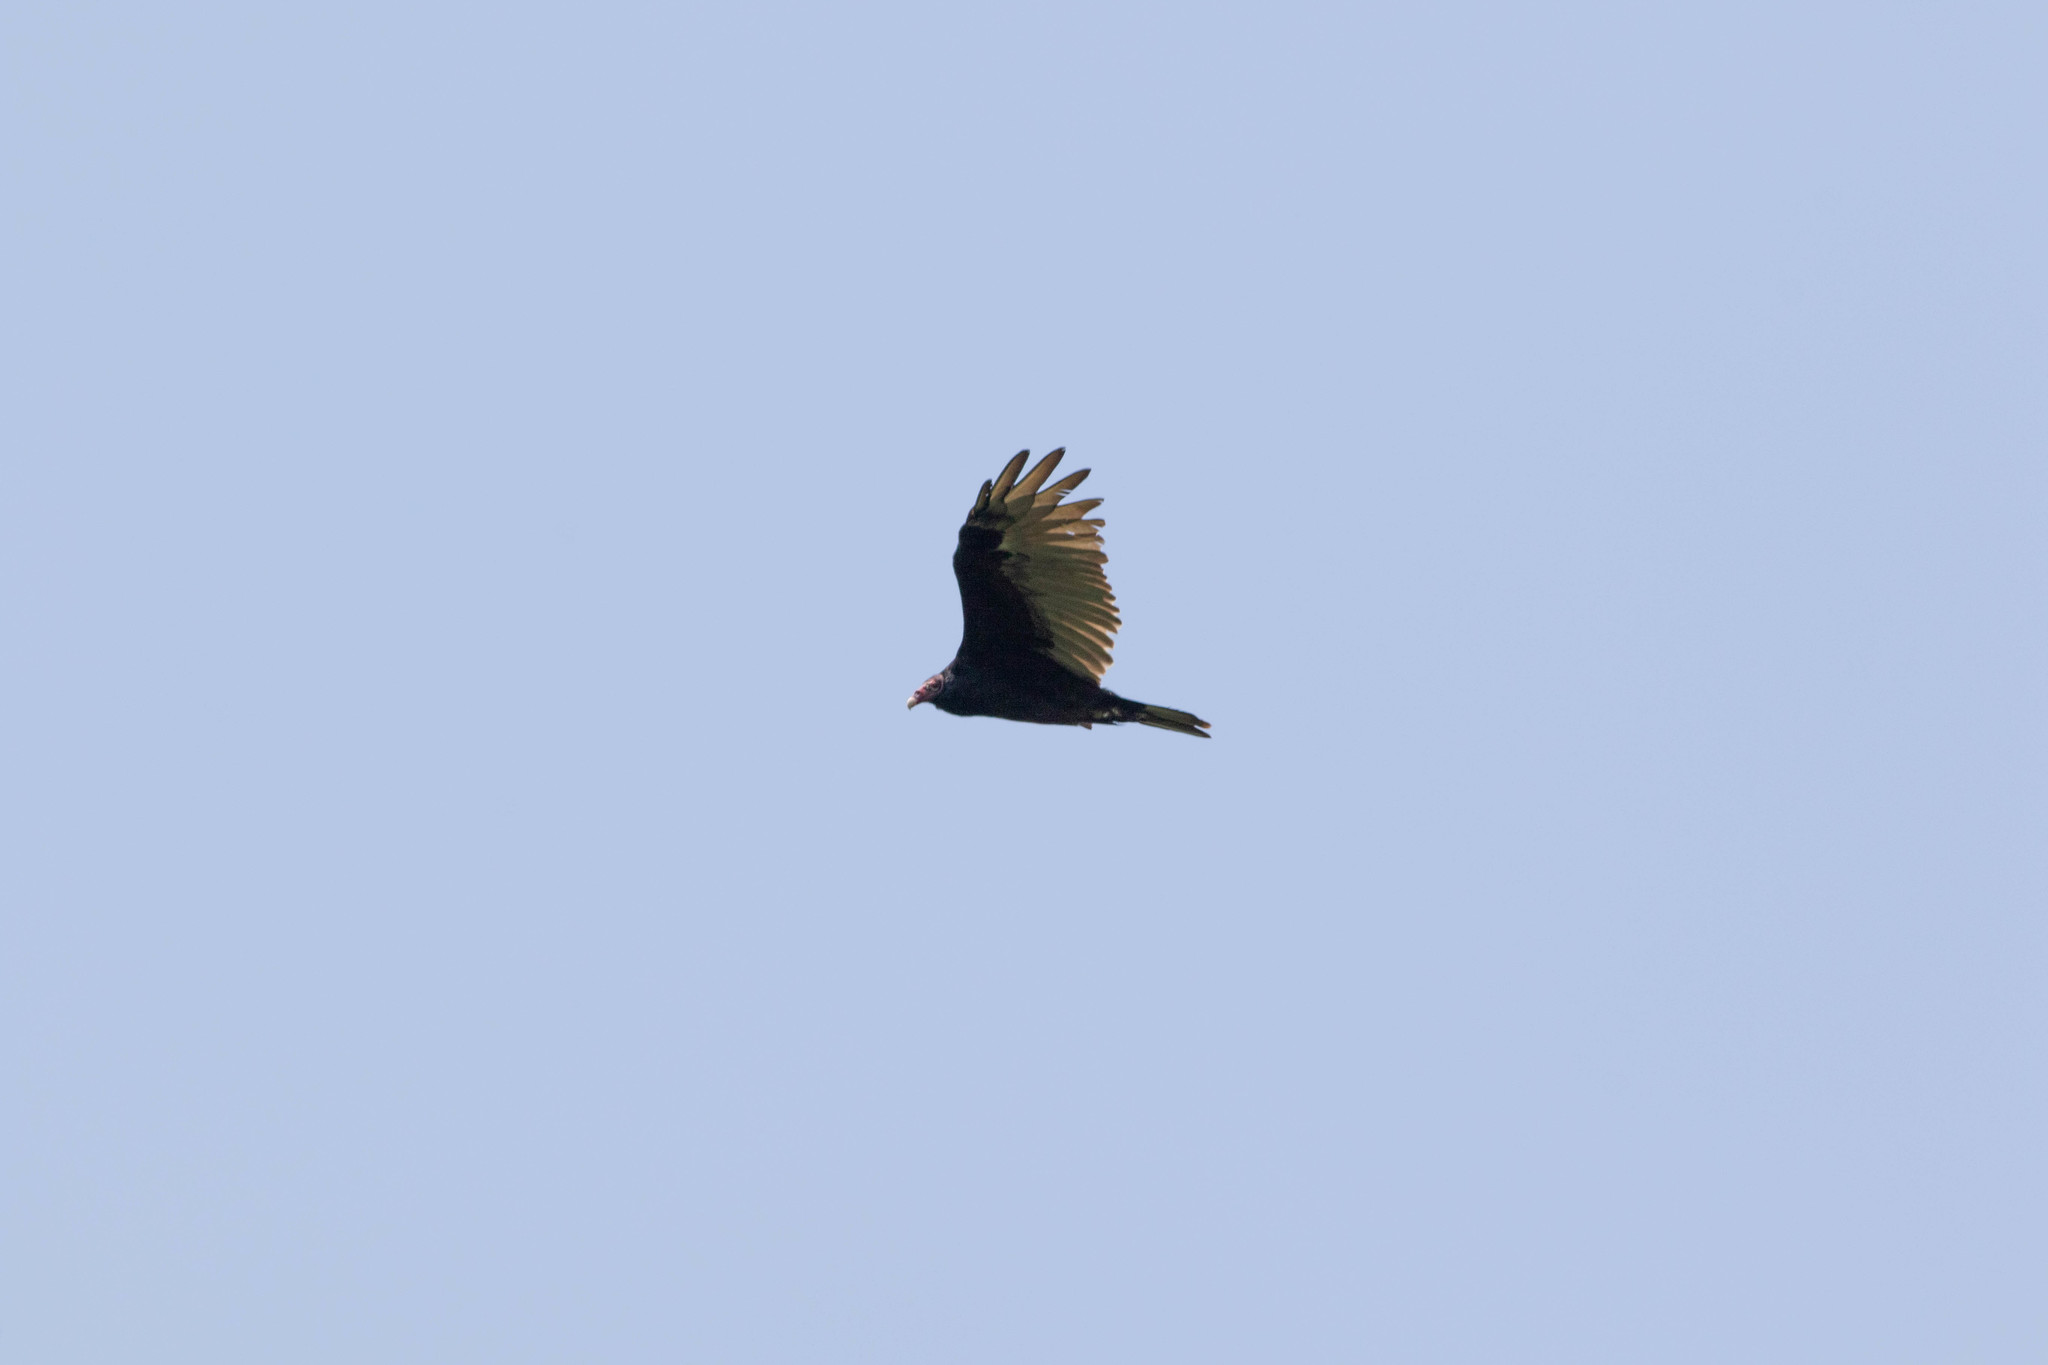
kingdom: Animalia
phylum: Chordata
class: Aves
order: Accipitriformes
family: Cathartidae
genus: Cathartes
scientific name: Cathartes aura
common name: Turkey vulture
